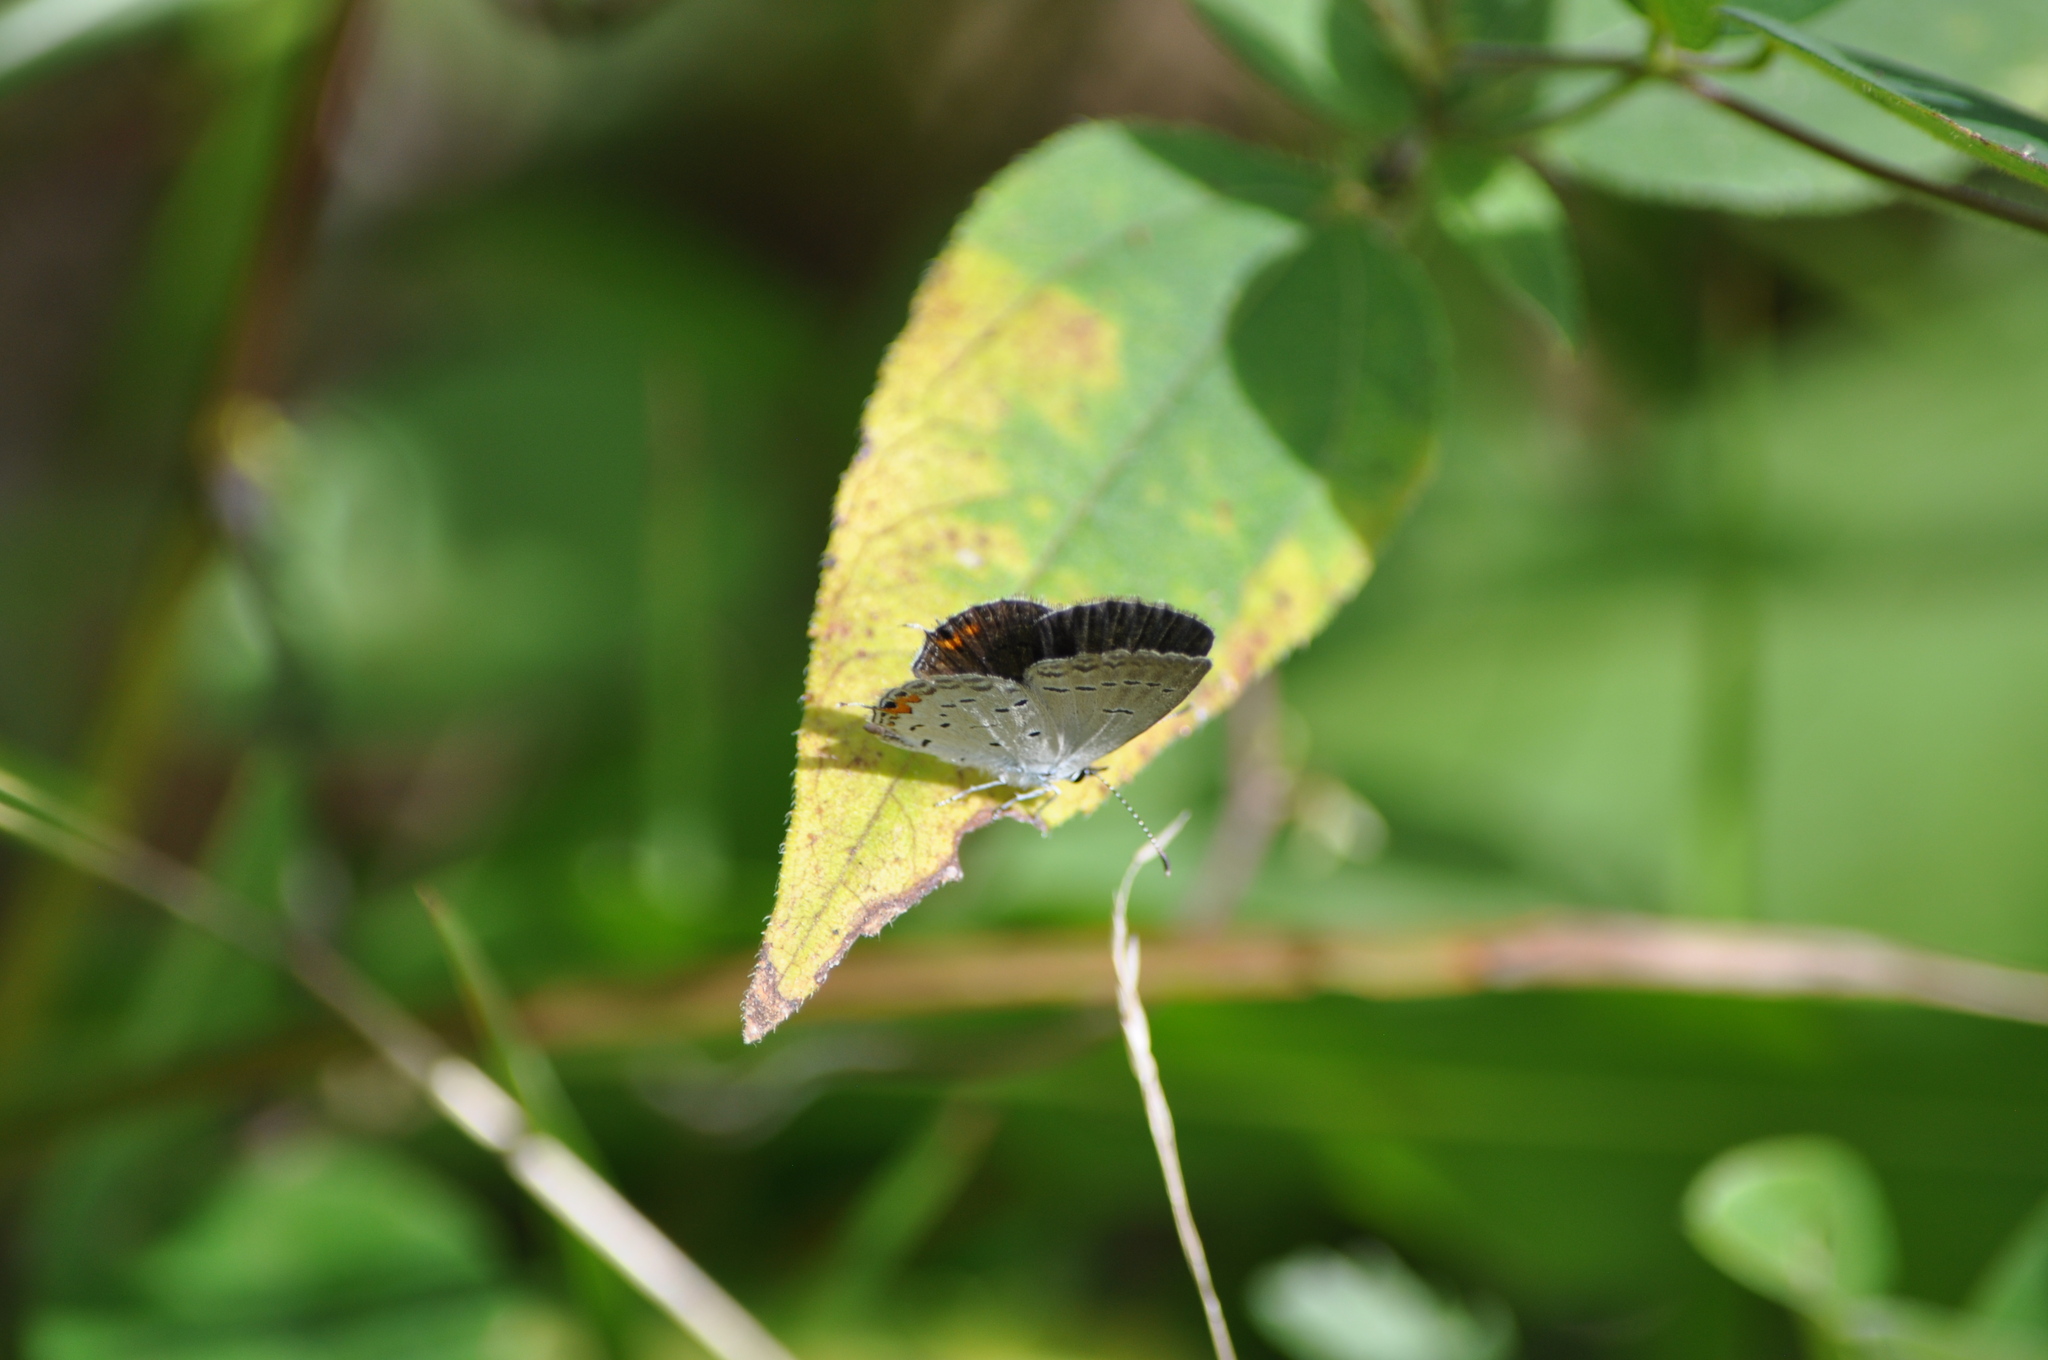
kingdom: Animalia
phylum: Arthropoda
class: Insecta
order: Lepidoptera
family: Lycaenidae
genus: Elkalyce
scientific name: Elkalyce comyntas
